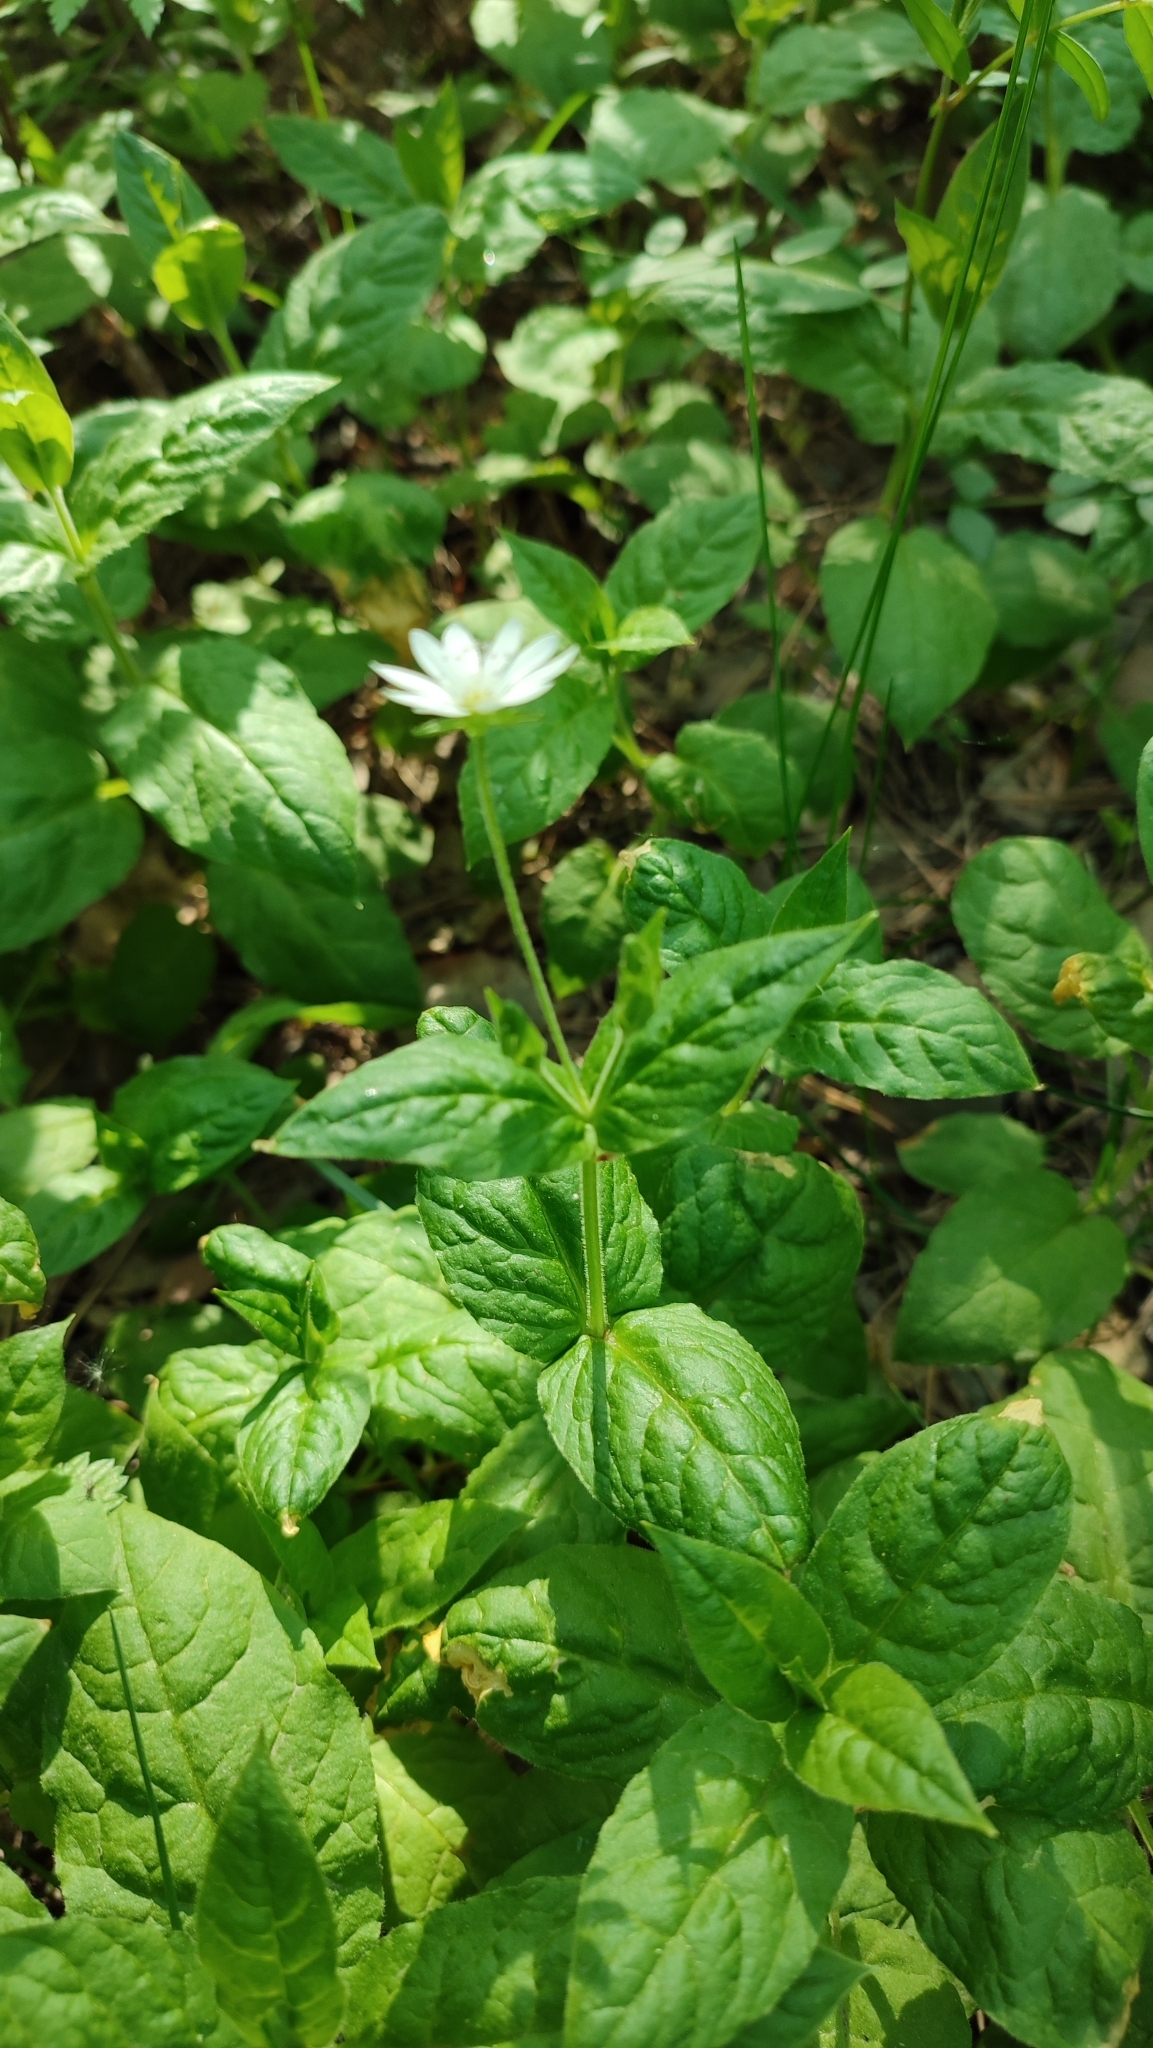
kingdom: Plantae
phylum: Tracheophyta
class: Magnoliopsida
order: Caryophyllales
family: Caryophyllaceae
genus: Stellaria
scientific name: Stellaria bungeana
